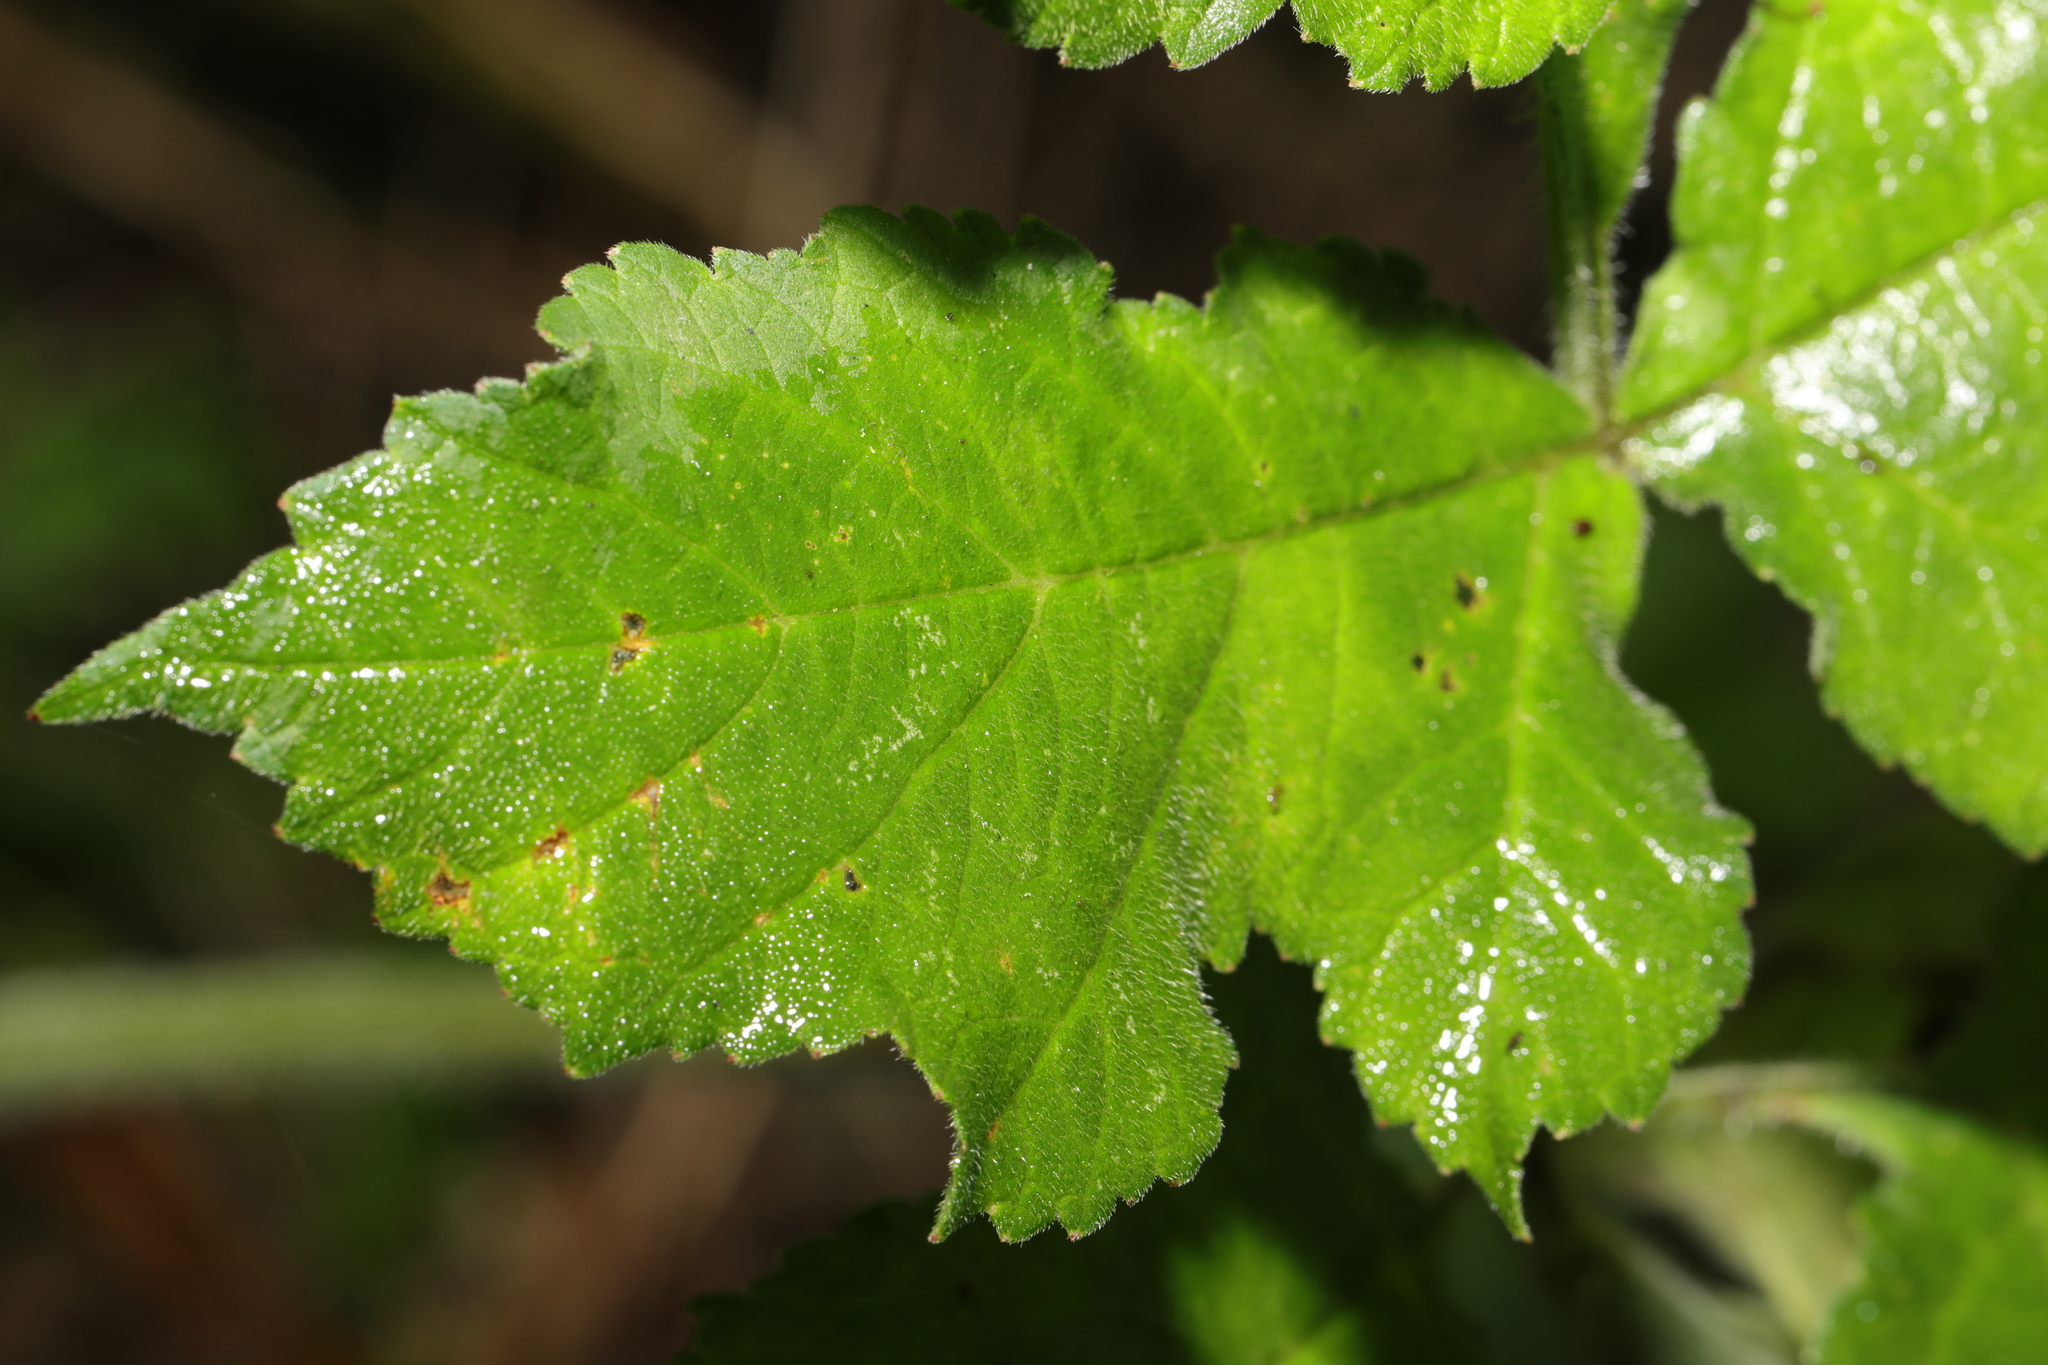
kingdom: Plantae
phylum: Tracheophyta
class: Magnoliopsida
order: Apiales
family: Apiaceae
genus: Heracleum
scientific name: Heracleum sphondylium
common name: Hogweed
